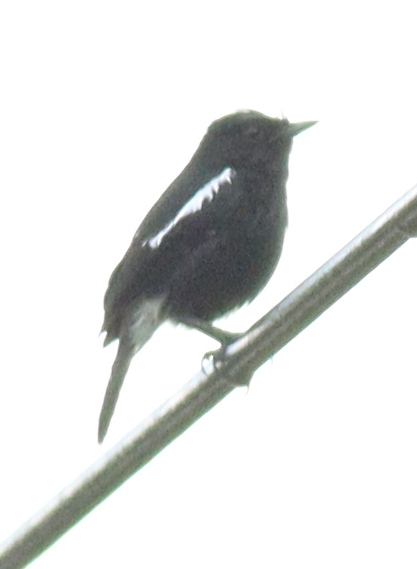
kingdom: Animalia
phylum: Chordata
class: Aves
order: Passeriformes
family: Muscicapidae
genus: Saxicola
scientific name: Saxicola caprata
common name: Pied bush chat
